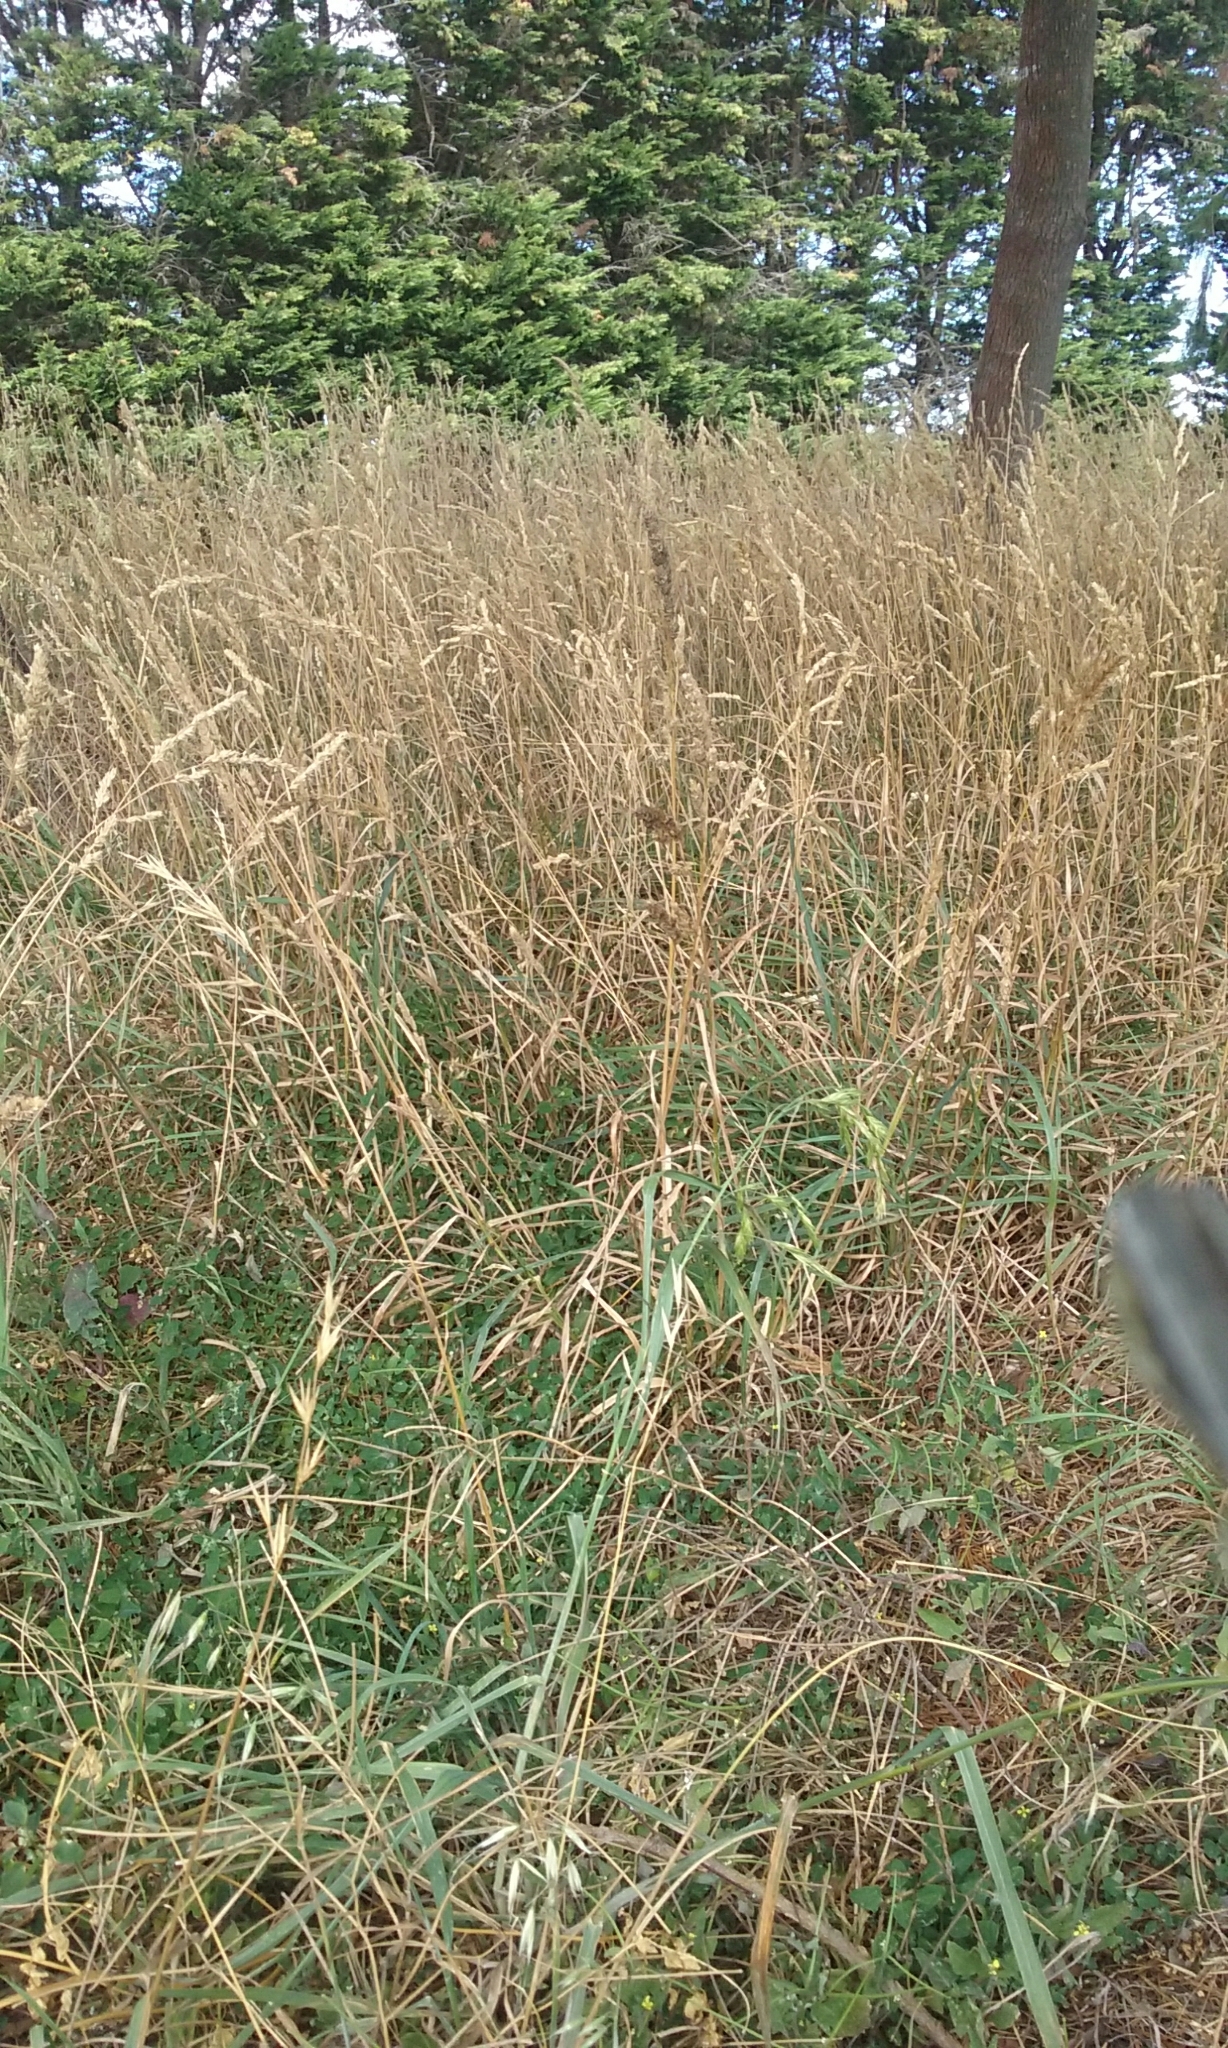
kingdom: Plantae
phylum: Tracheophyta
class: Liliopsida
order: Poales
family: Poaceae
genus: Dactylis
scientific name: Dactylis glomerata
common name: Orchardgrass
